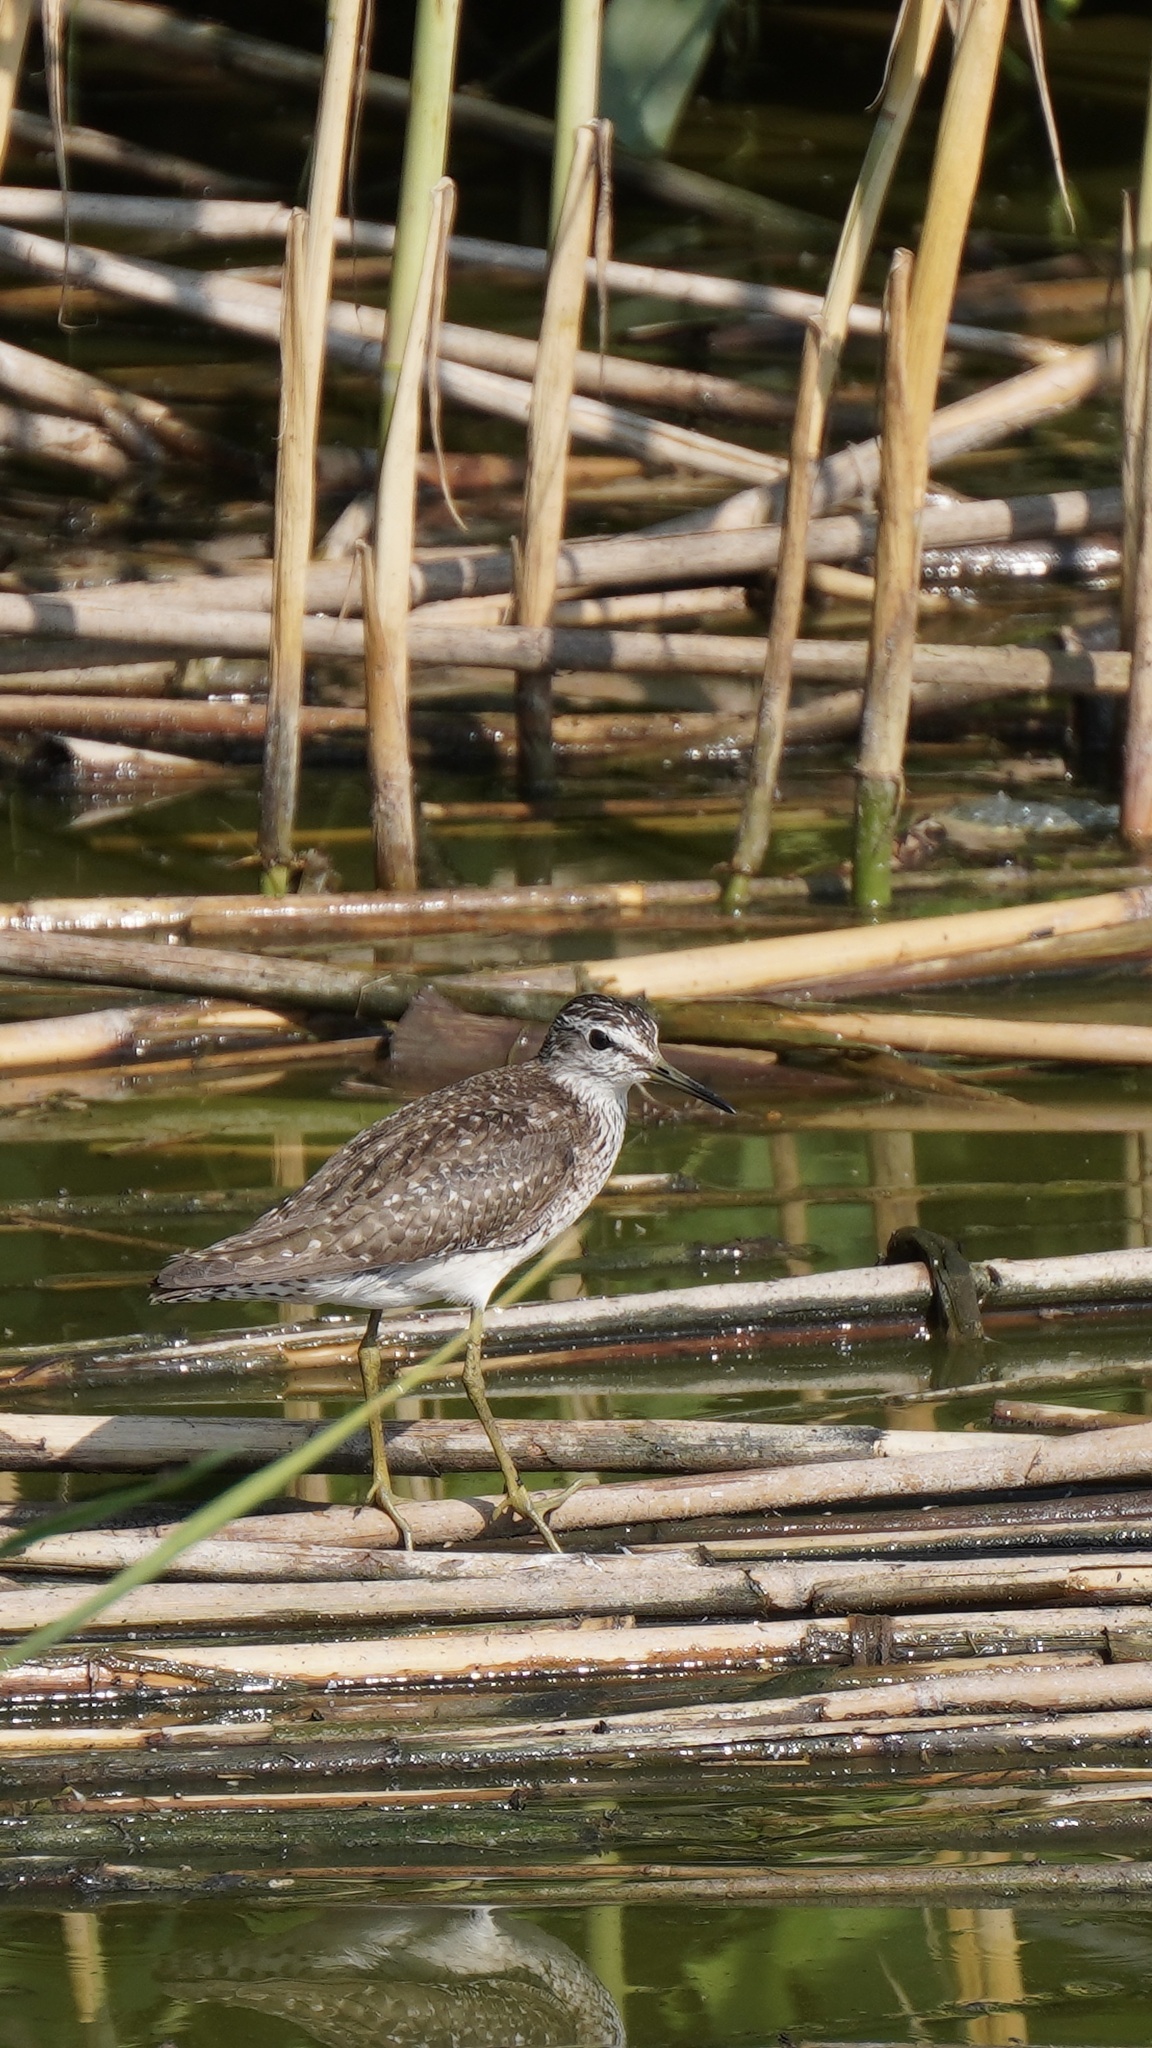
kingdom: Animalia
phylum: Chordata
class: Aves
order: Charadriiformes
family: Scolopacidae
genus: Tringa
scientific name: Tringa glareola
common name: Wood sandpiper
